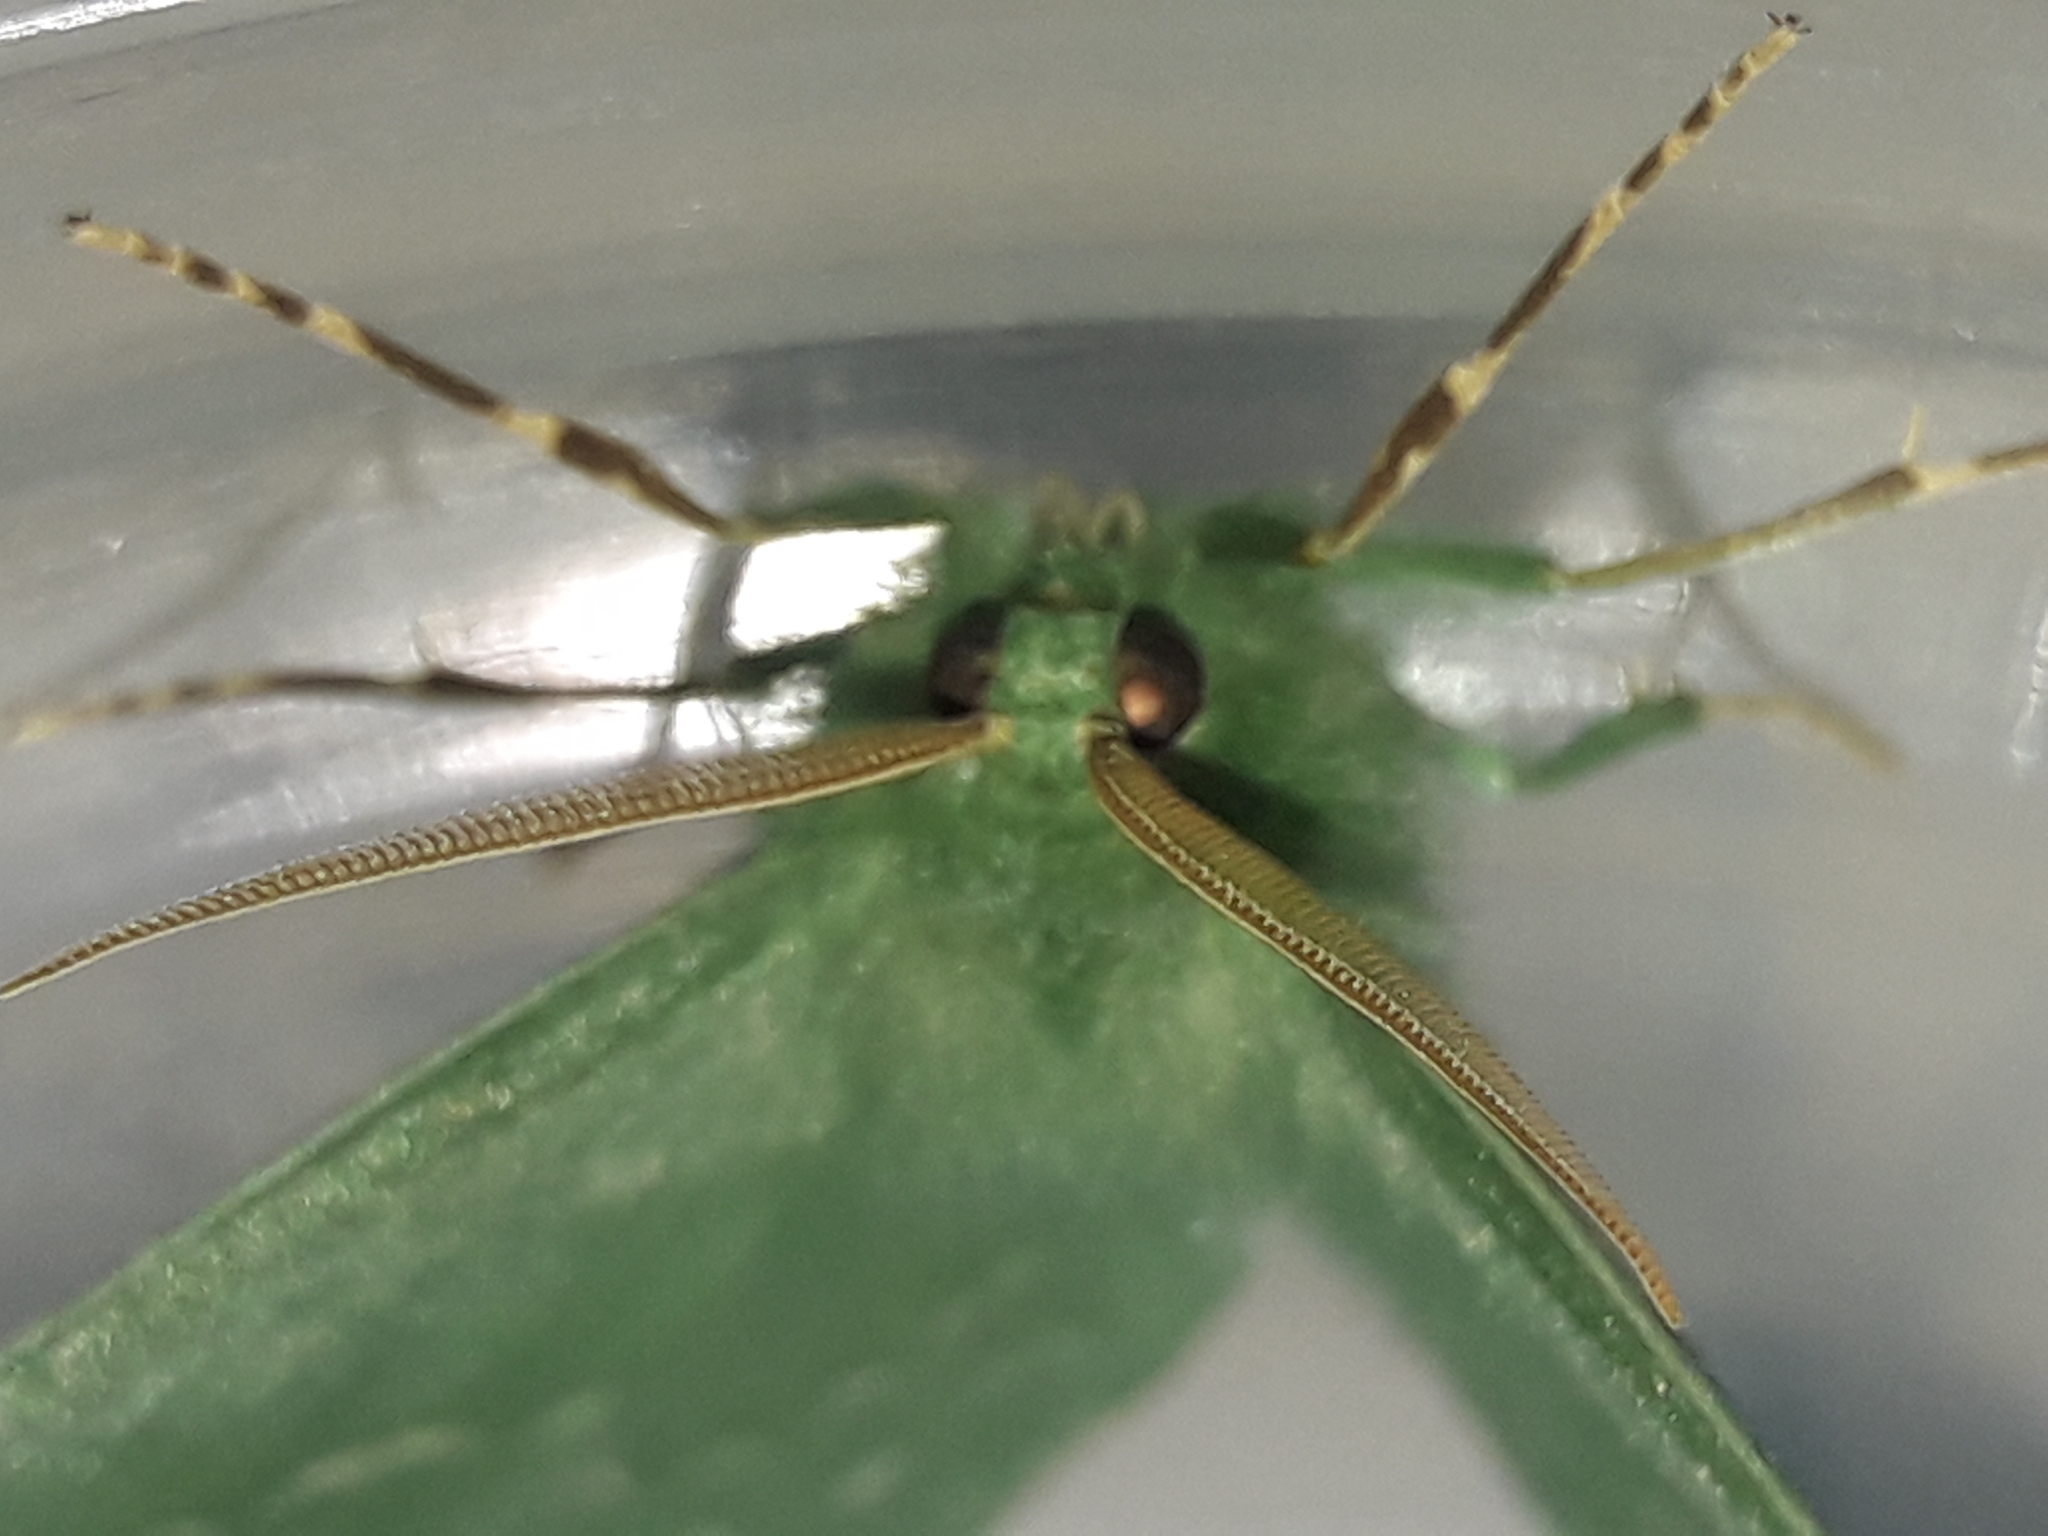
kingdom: Animalia
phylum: Arthropoda
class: Insecta
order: Lepidoptera
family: Geometridae
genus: Geometra
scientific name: Geometra papilionaria
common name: Large emerald
